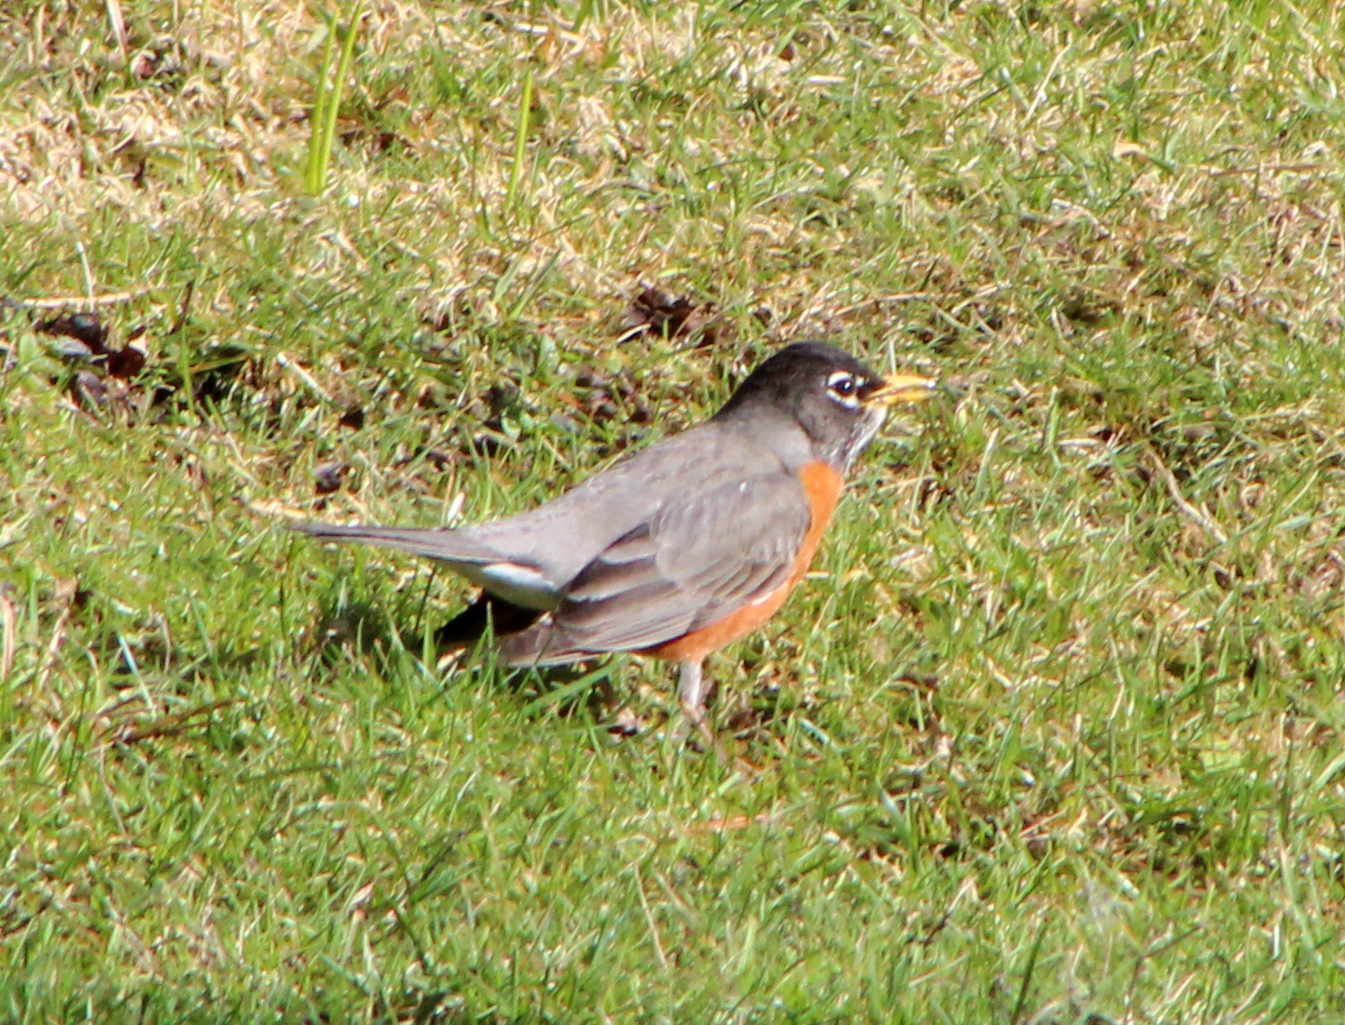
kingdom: Animalia
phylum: Chordata
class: Aves
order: Passeriformes
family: Turdidae
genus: Turdus
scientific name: Turdus migratorius
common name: American robin
